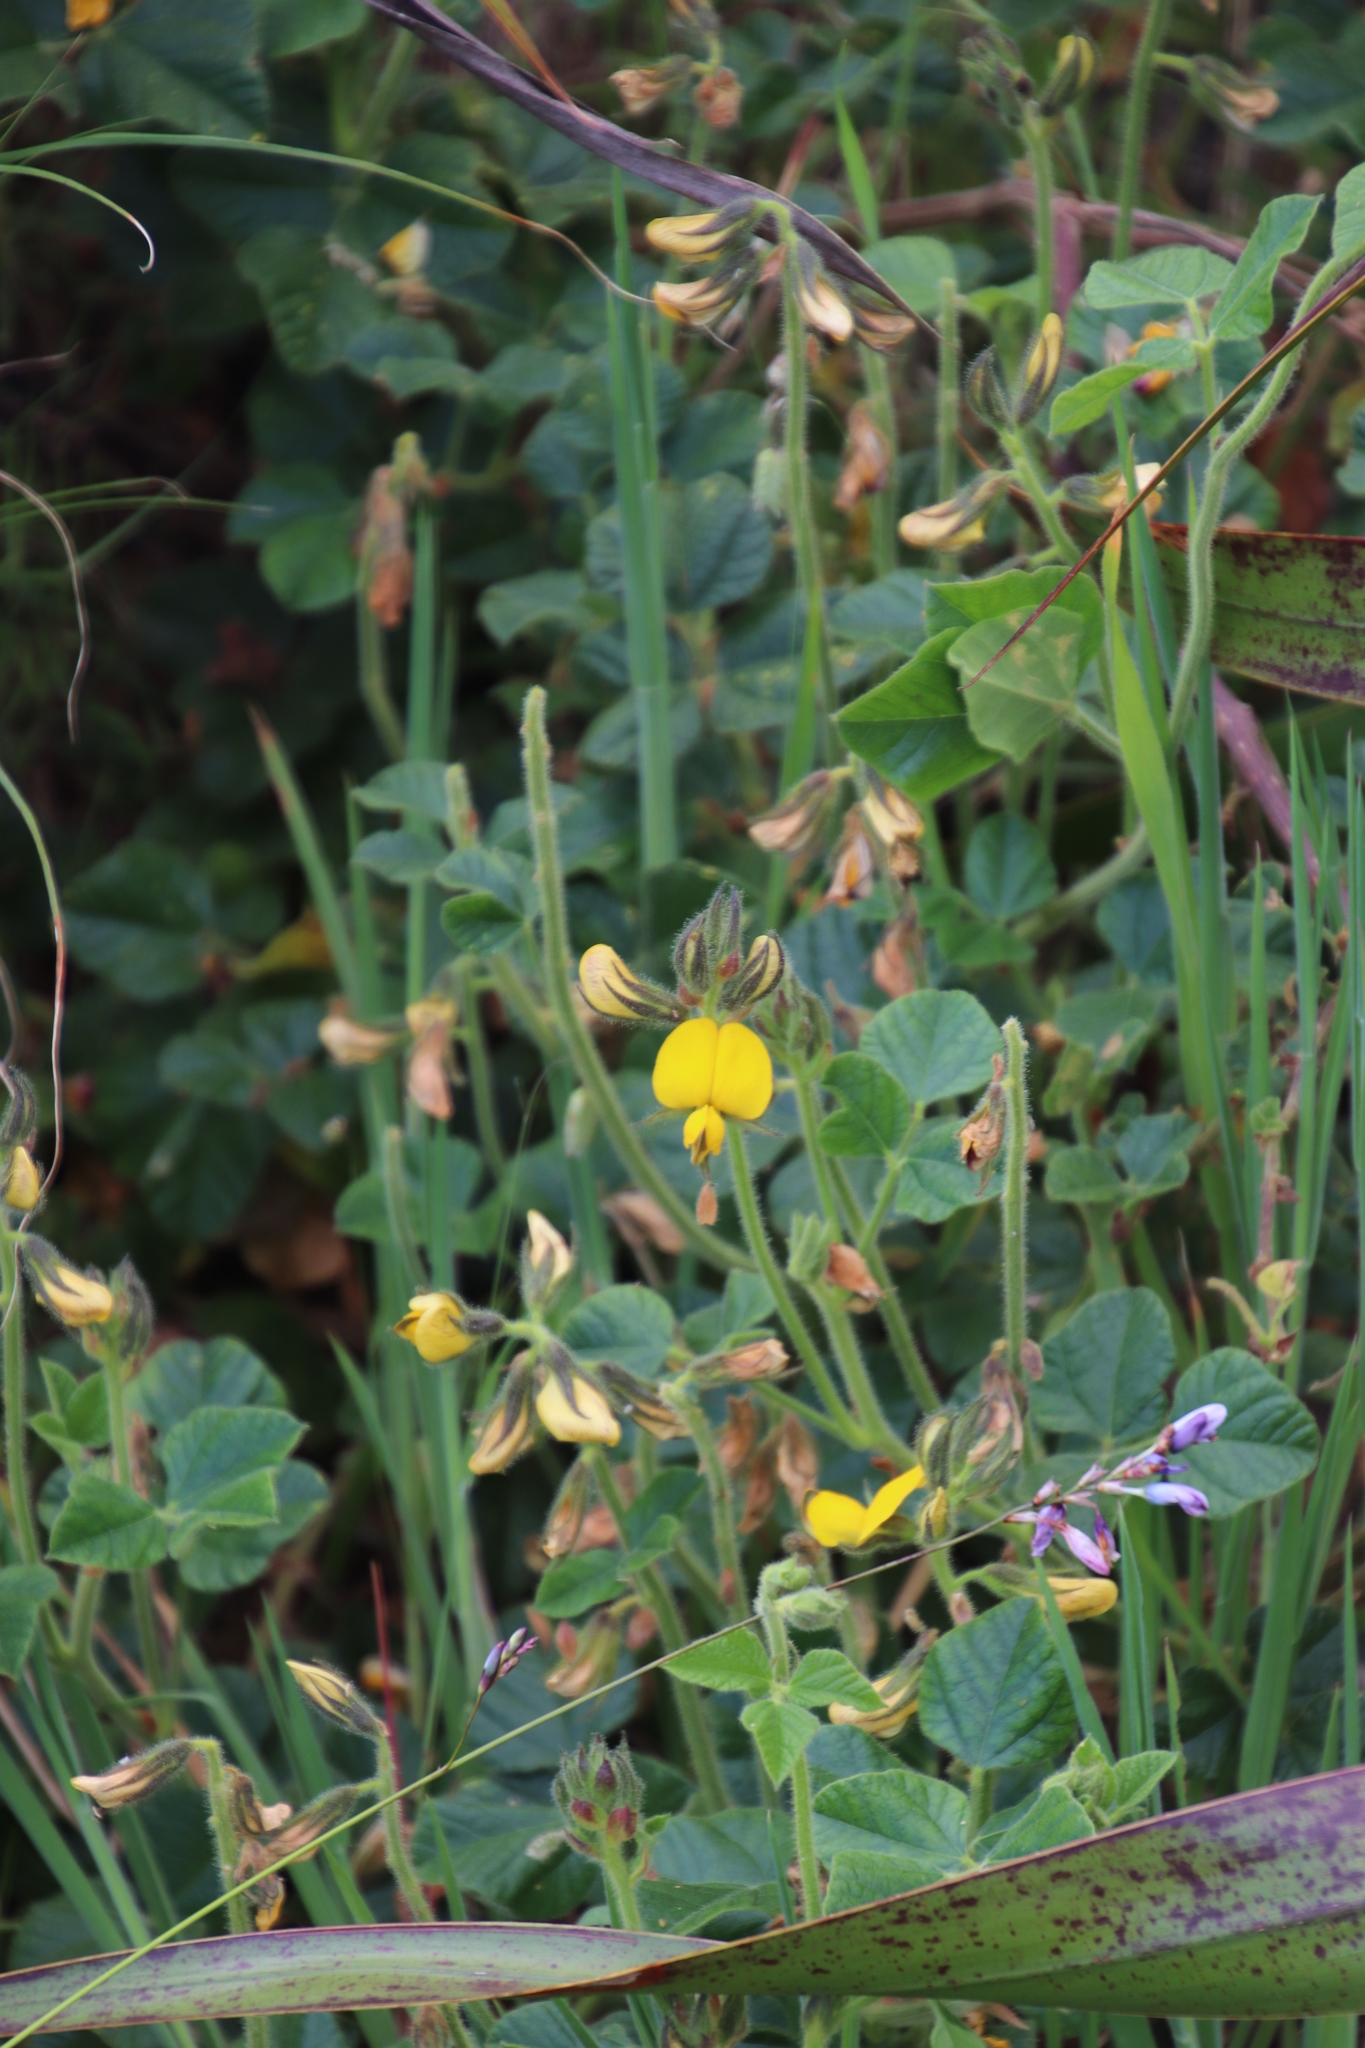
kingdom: Plantae
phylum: Tracheophyta
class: Magnoliopsida
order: Fabales
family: Fabaceae
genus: Bolusafra
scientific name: Bolusafra bituminosa
